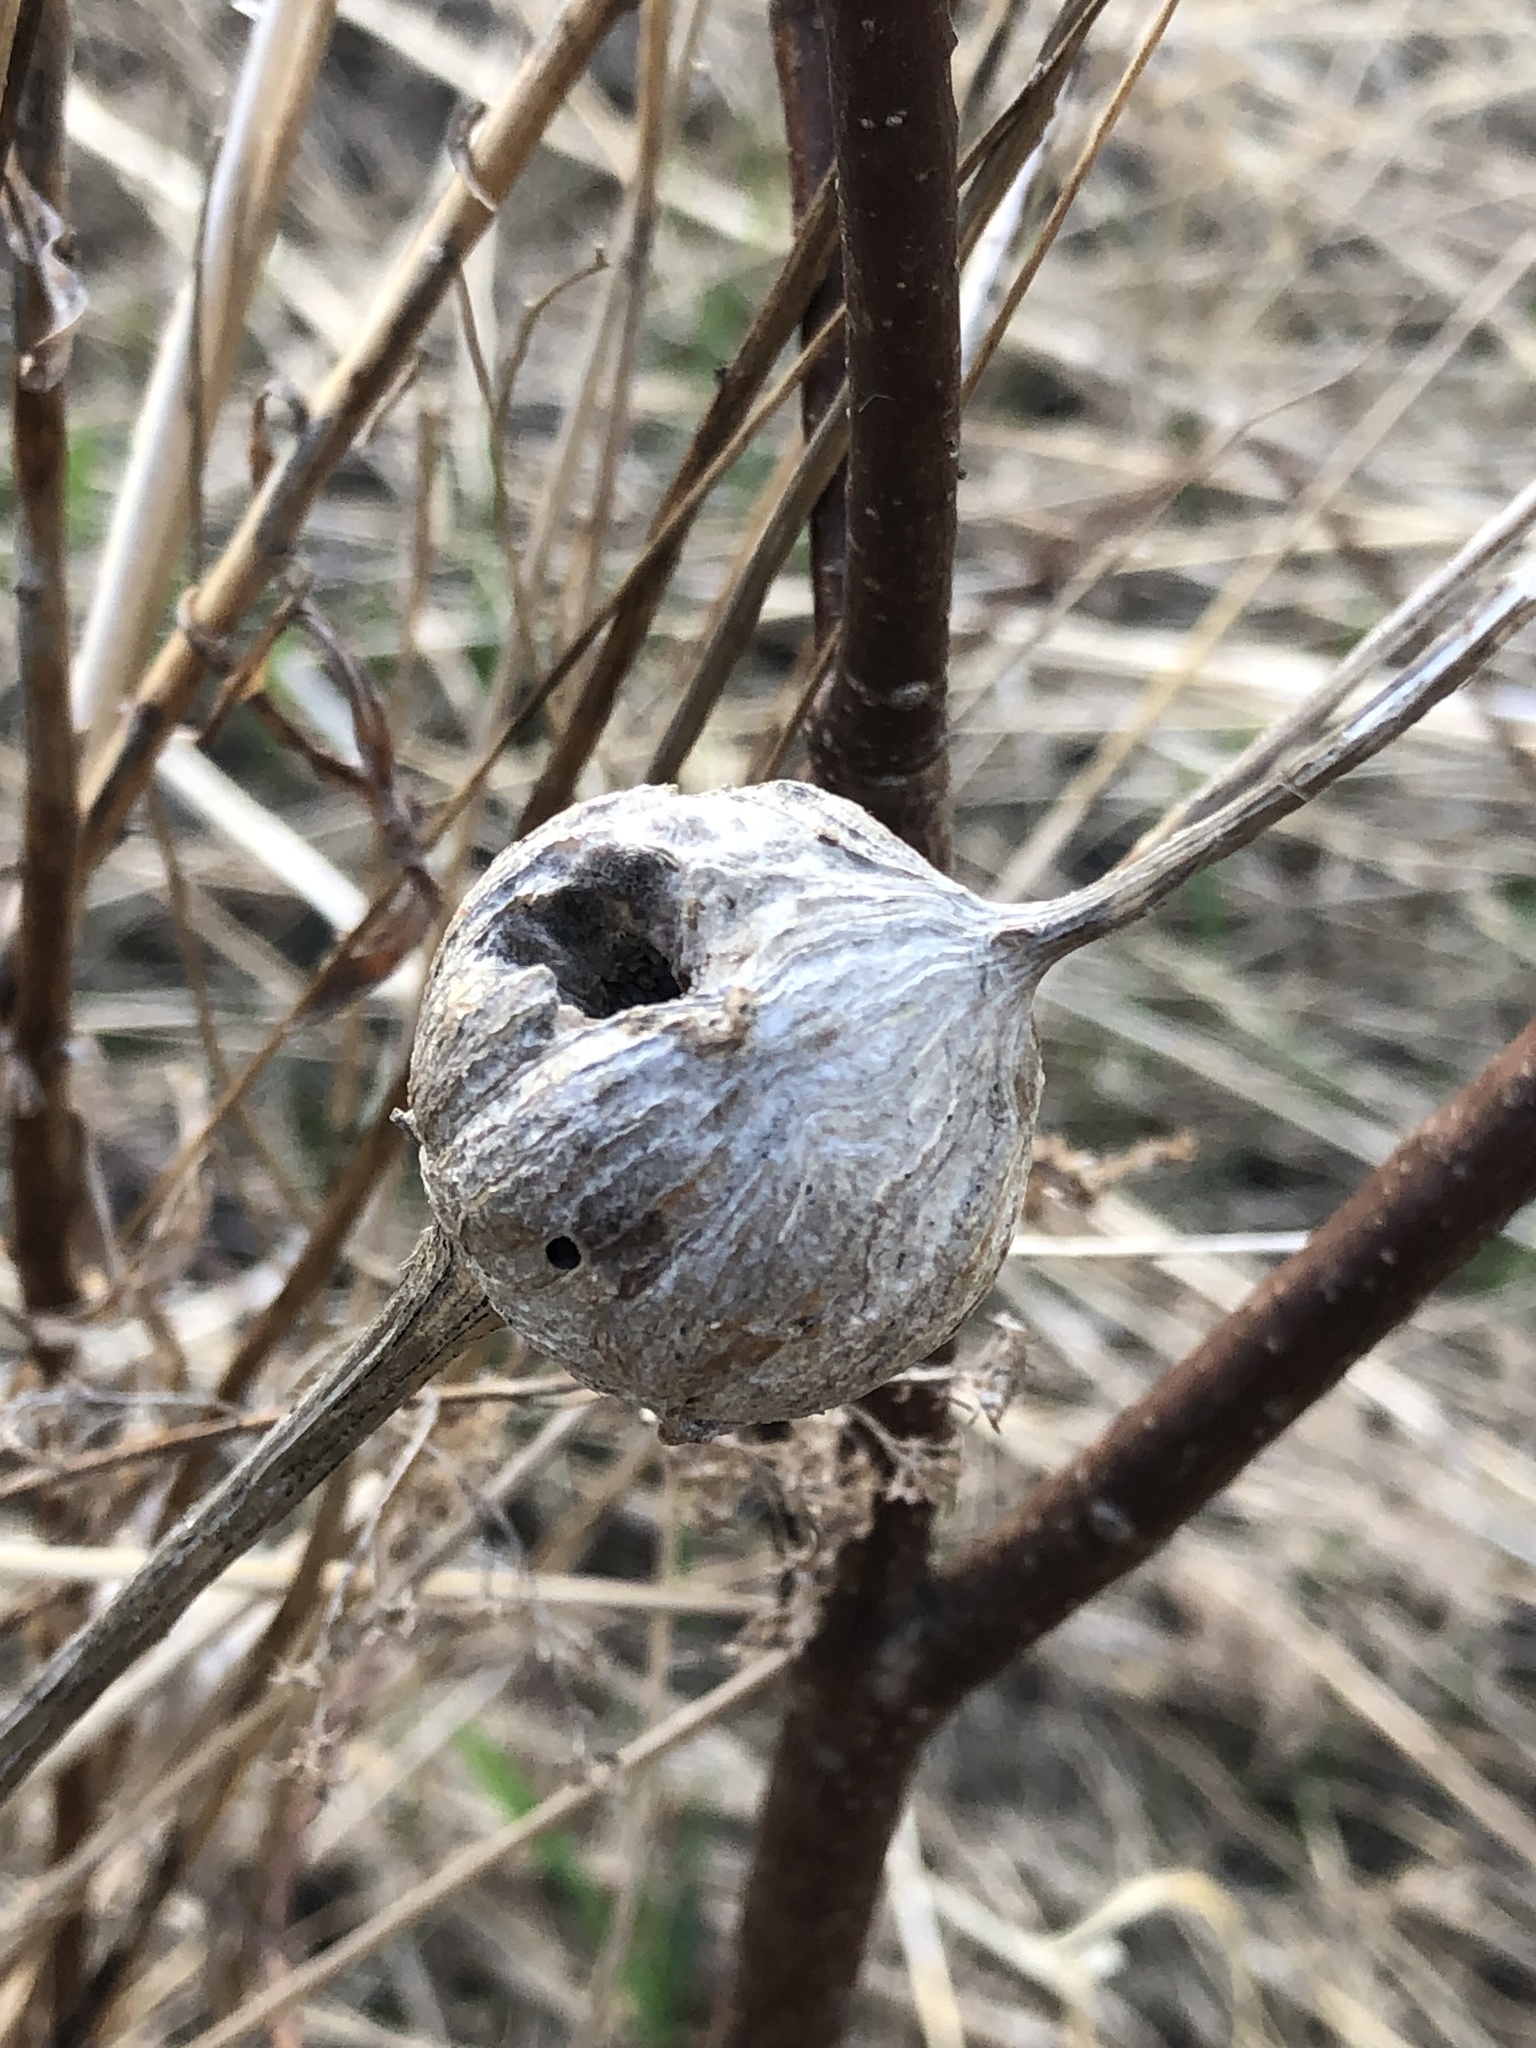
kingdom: Animalia
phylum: Arthropoda
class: Insecta
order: Diptera
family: Tephritidae
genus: Eurosta
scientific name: Eurosta solidaginis
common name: Goldenrod gall fly
